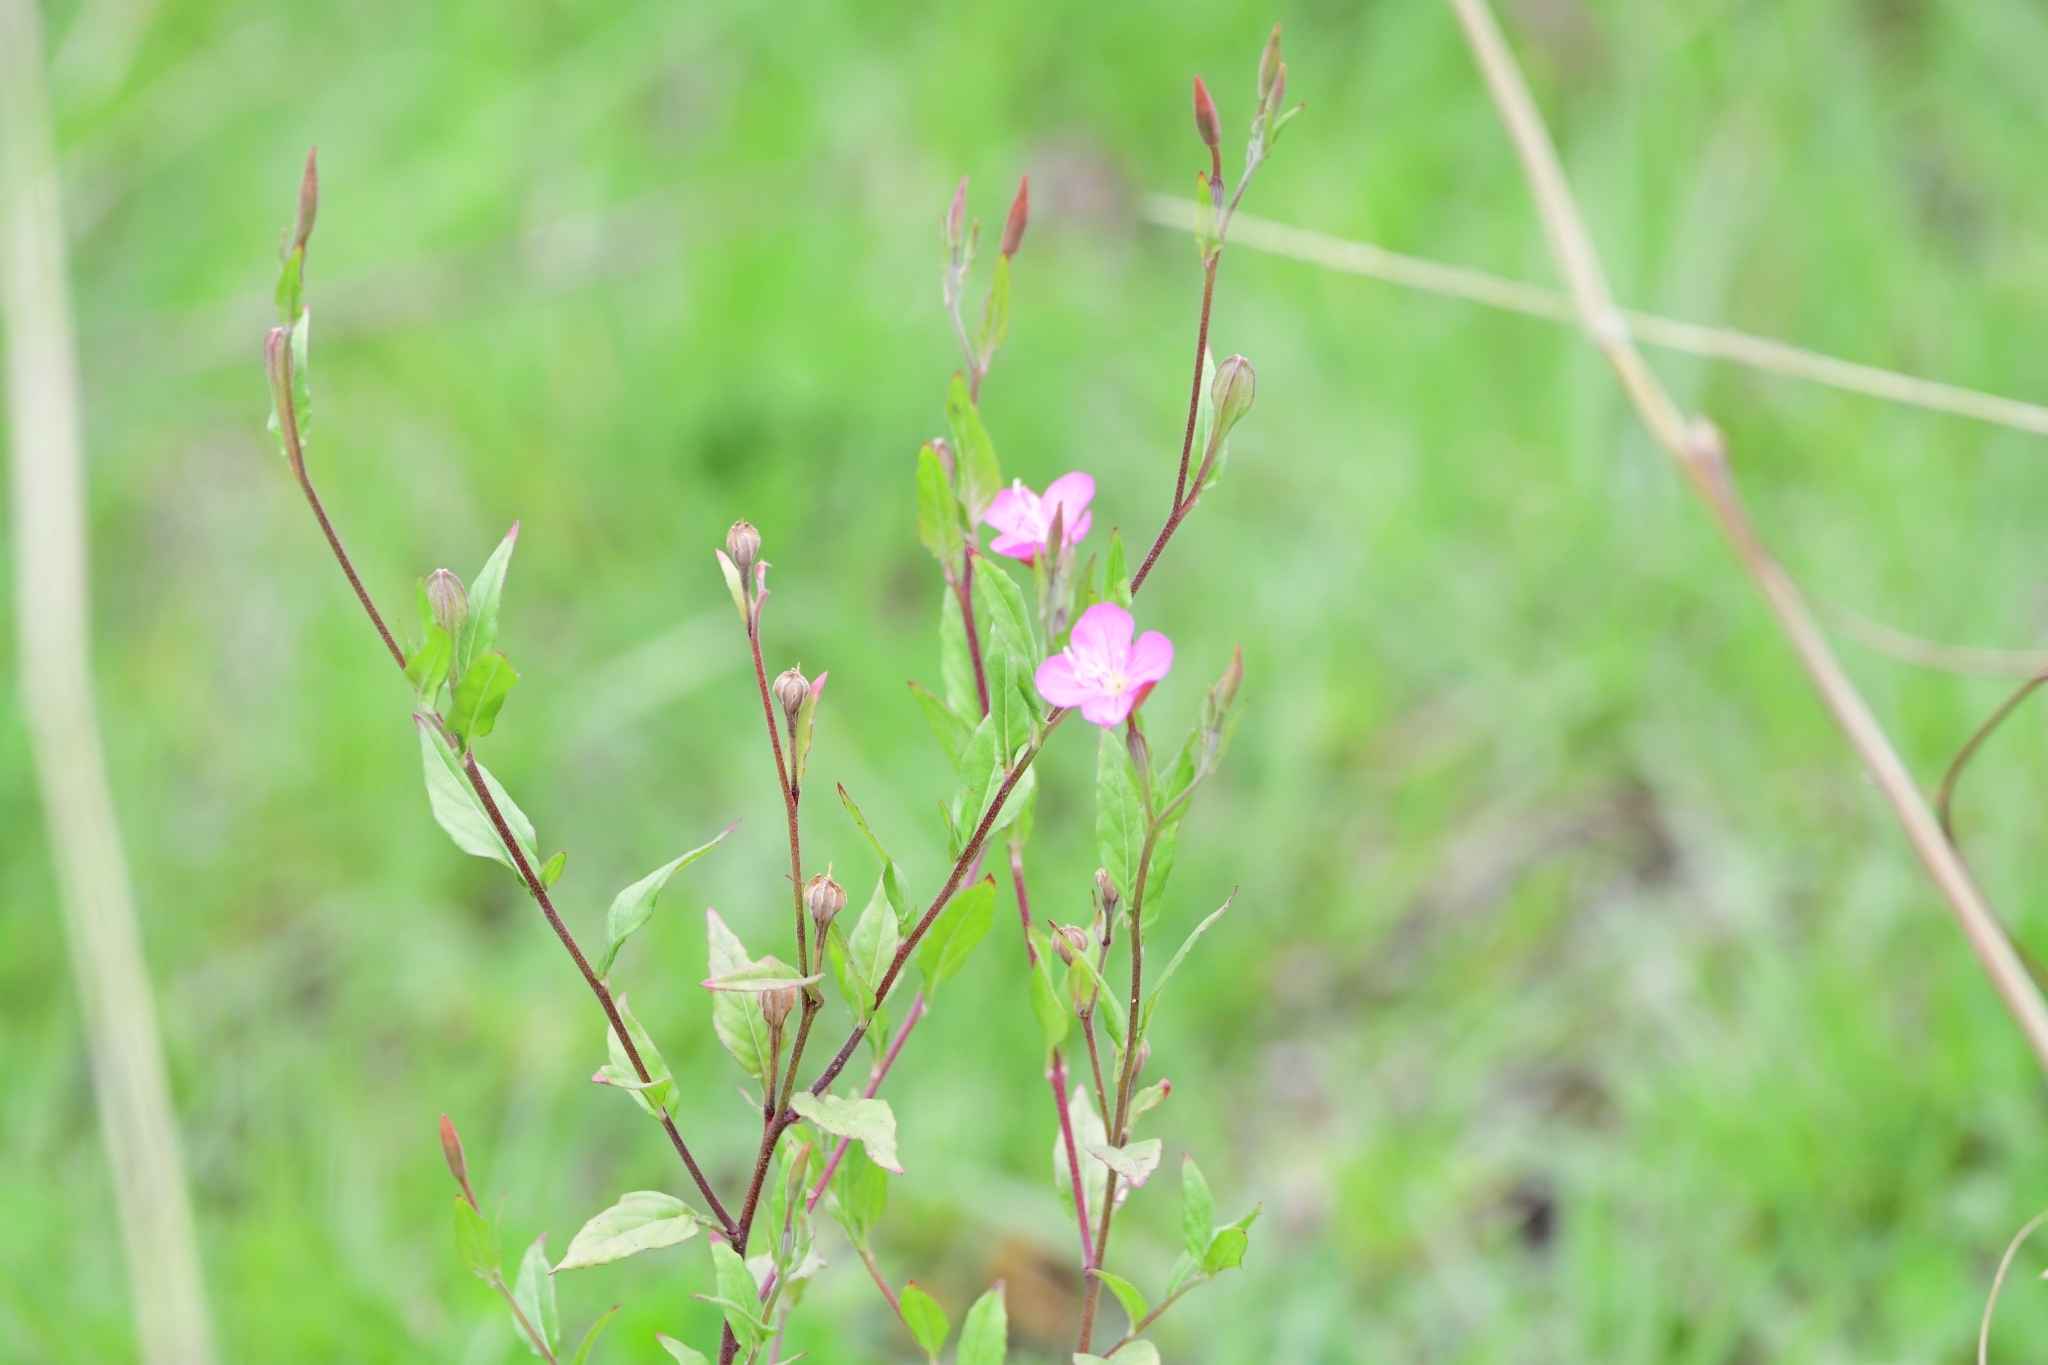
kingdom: Plantae
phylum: Tracheophyta
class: Magnoliopsida
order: Myrtales
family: Onagraceae
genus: Oenothera
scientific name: Oenothera rosea
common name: Rosy evening-primrose
